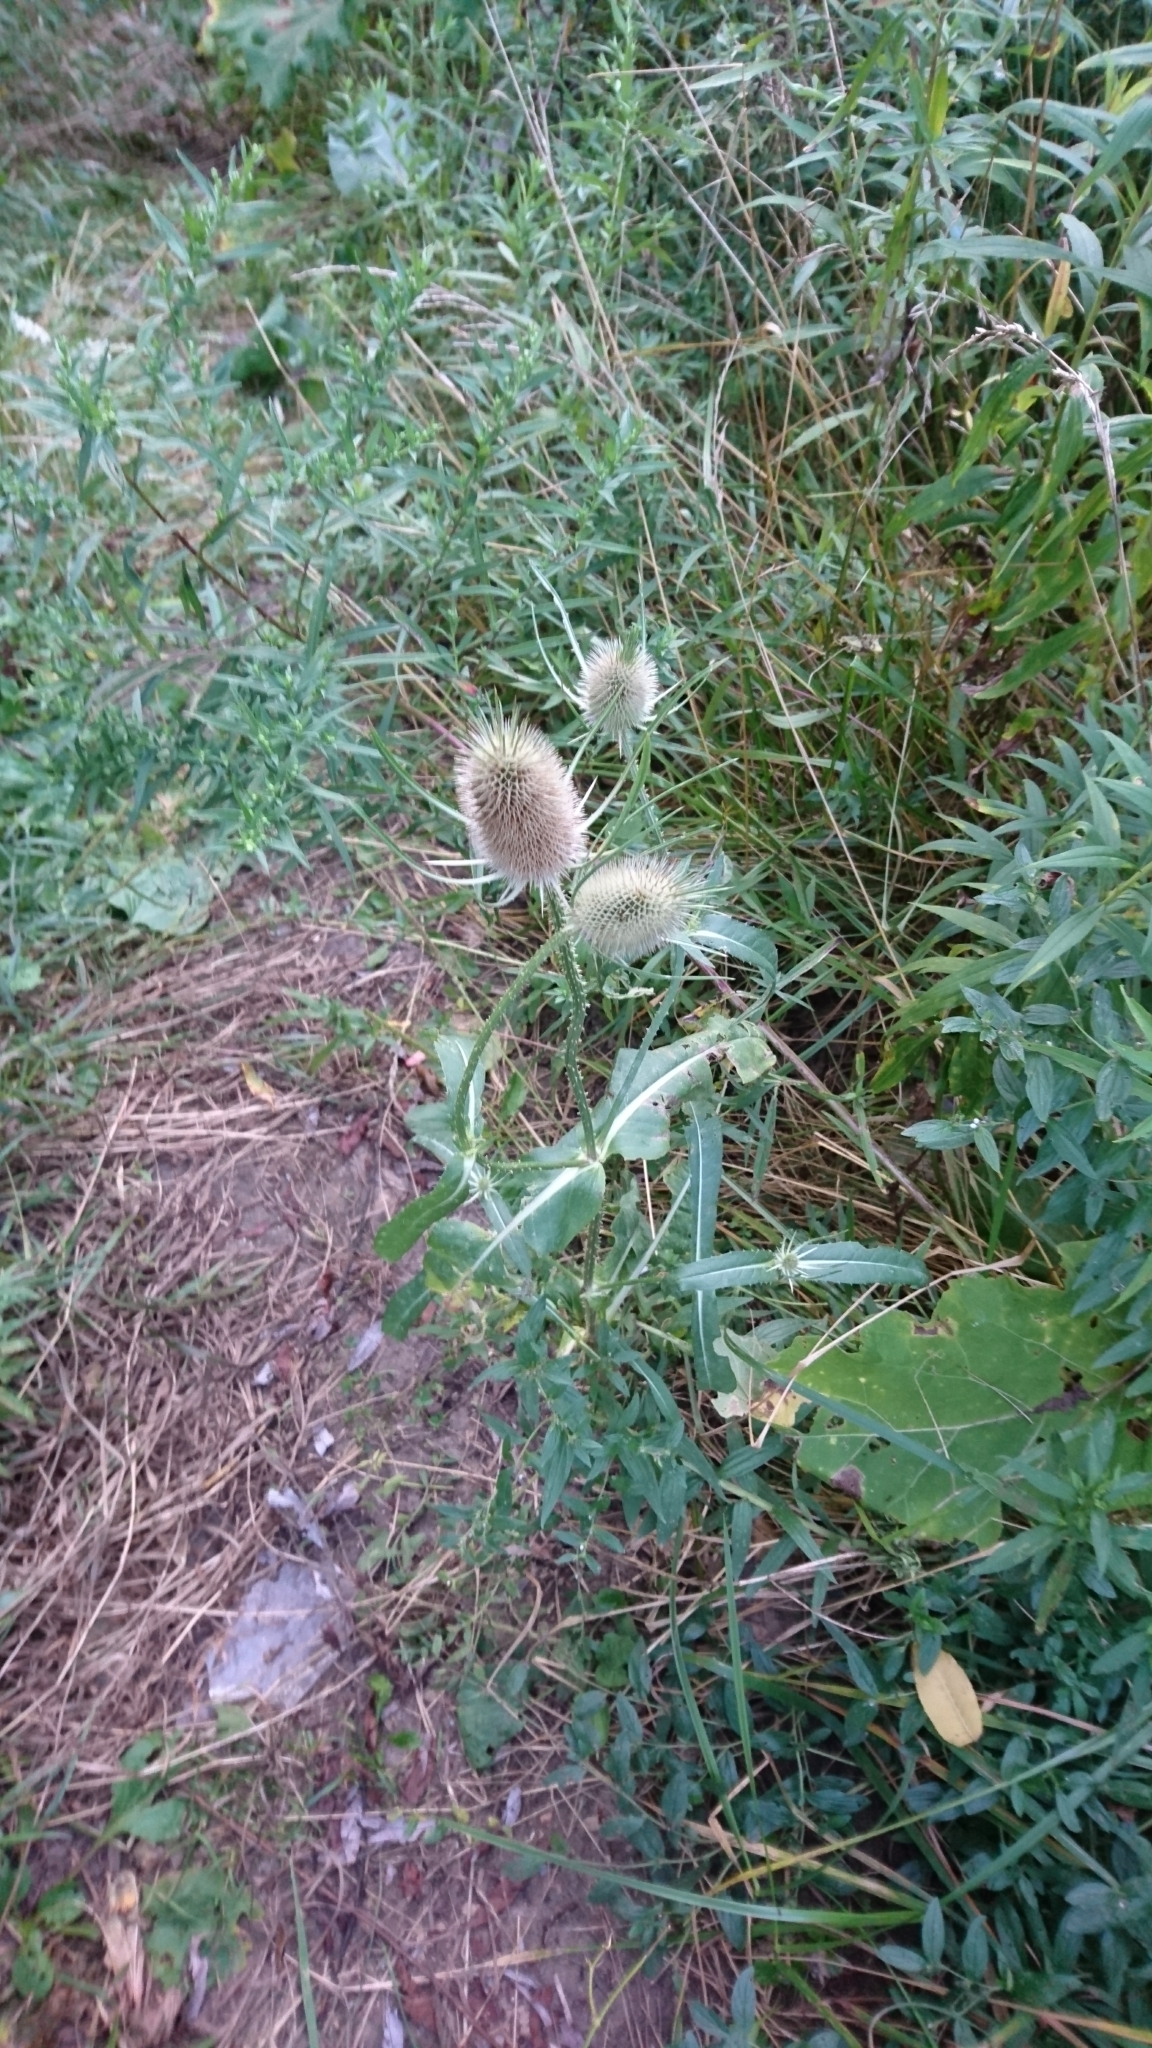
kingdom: Plantae
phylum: Tracheophyta
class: Magnoliopsida
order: Dipsacales
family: Caprifoliaceae
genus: Dipsacus
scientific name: Dipsacus fullonum
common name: Teasel
